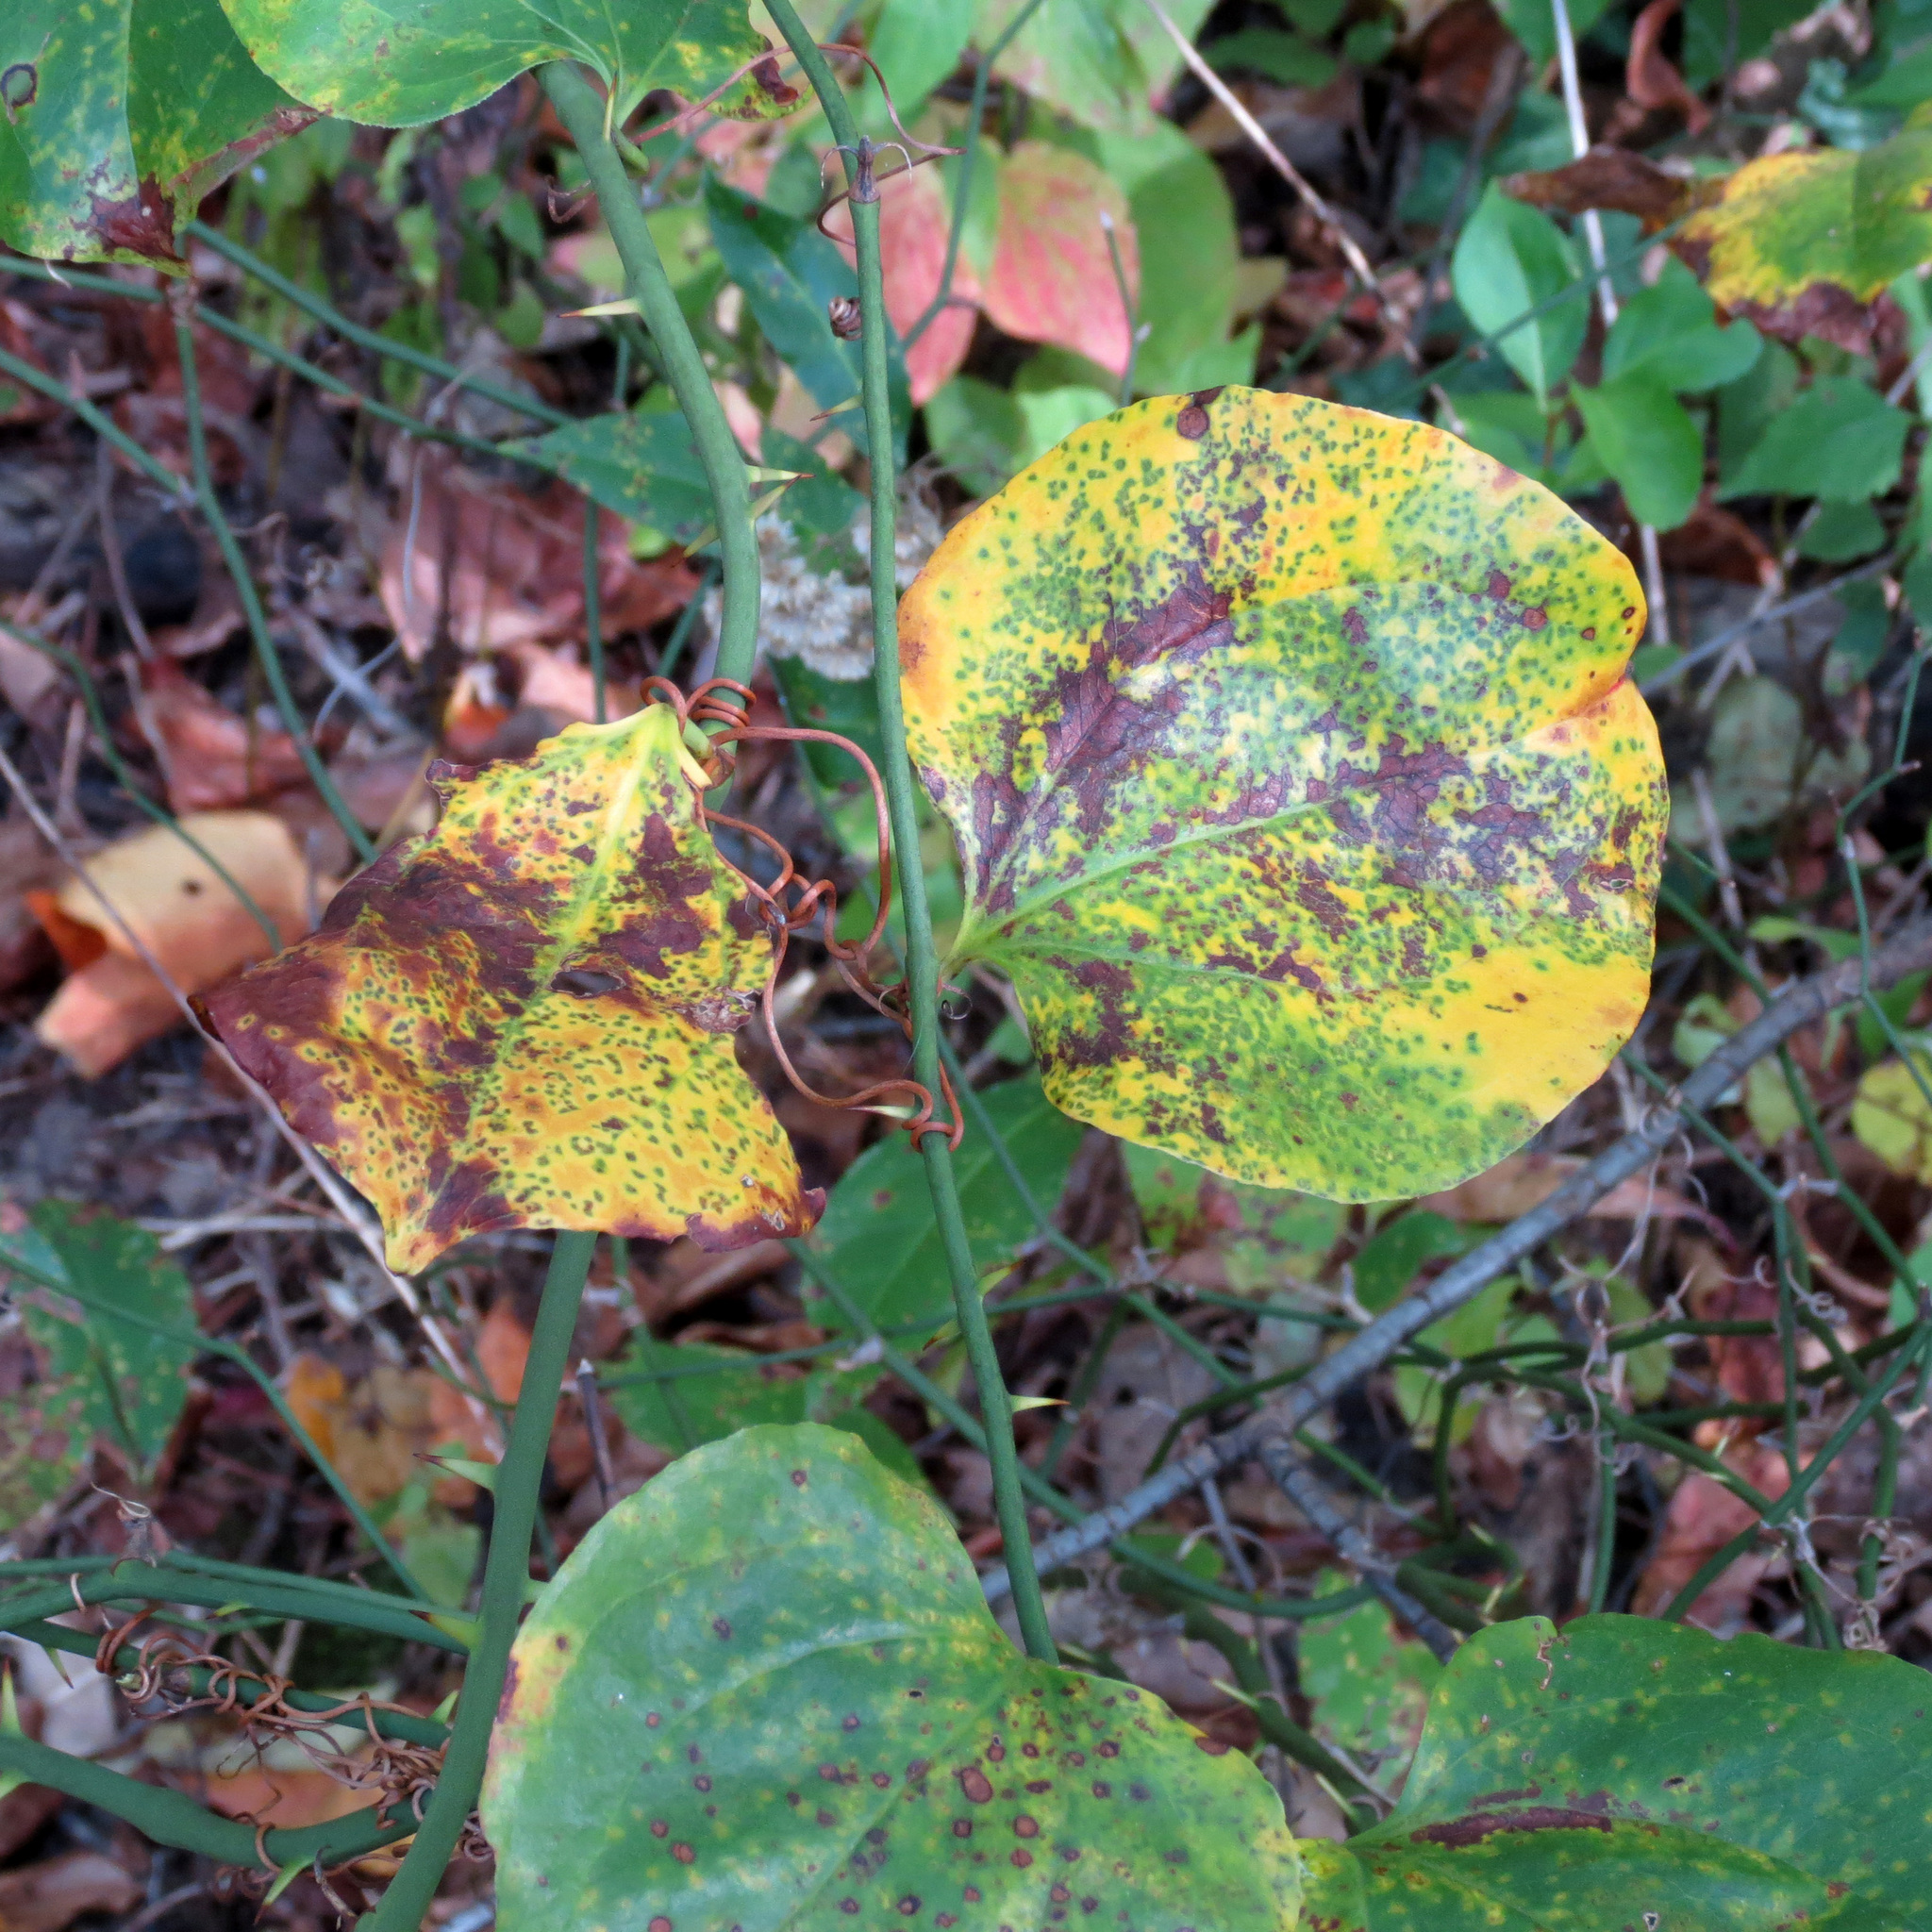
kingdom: Plantae
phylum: Tracheophyta
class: Liliopsida
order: Liliales
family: Smilacaceae
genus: Smilax
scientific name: Smilax rotundifolia
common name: Bullbriar
